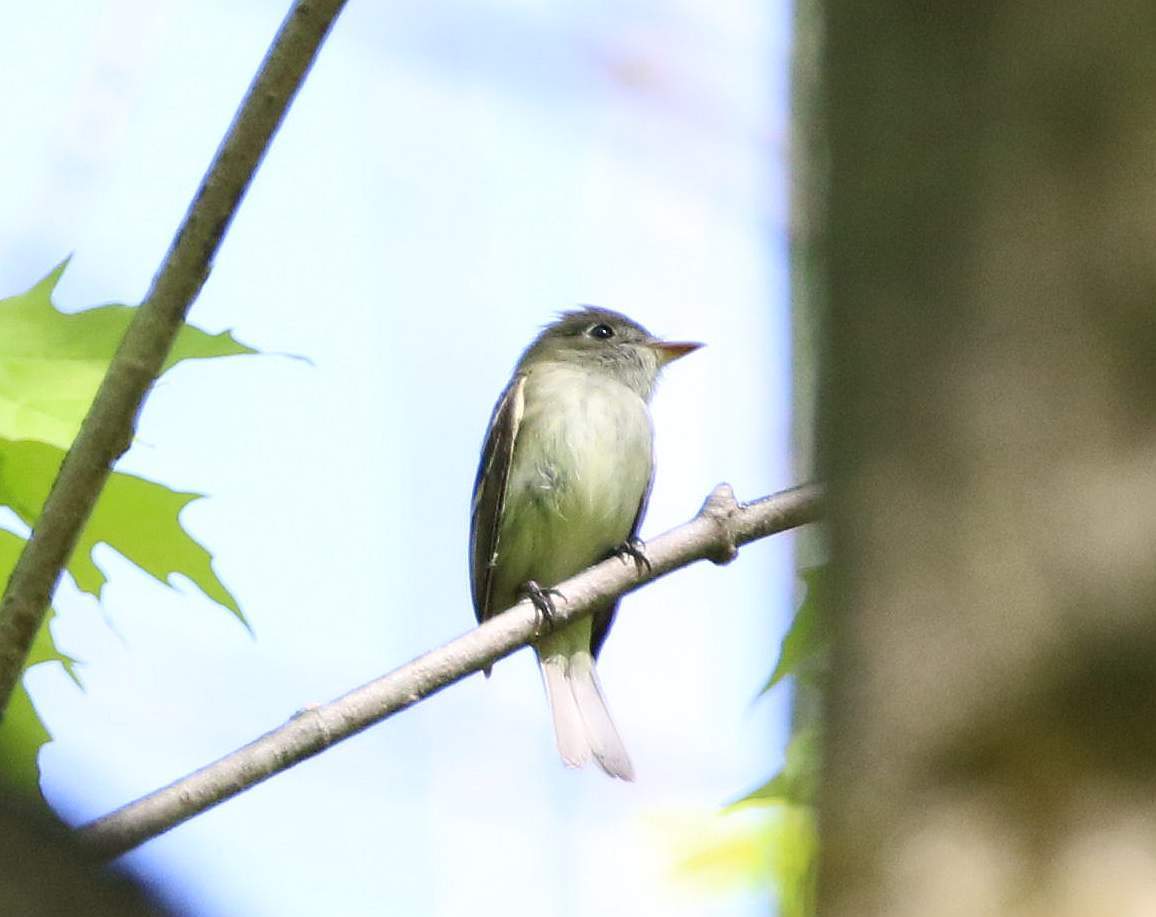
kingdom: Animalia
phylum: Chordata
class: Aves
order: Passeriformes
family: Tyrannidae
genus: Empidonax
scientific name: Empidonax minimus
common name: Least flycatcher
